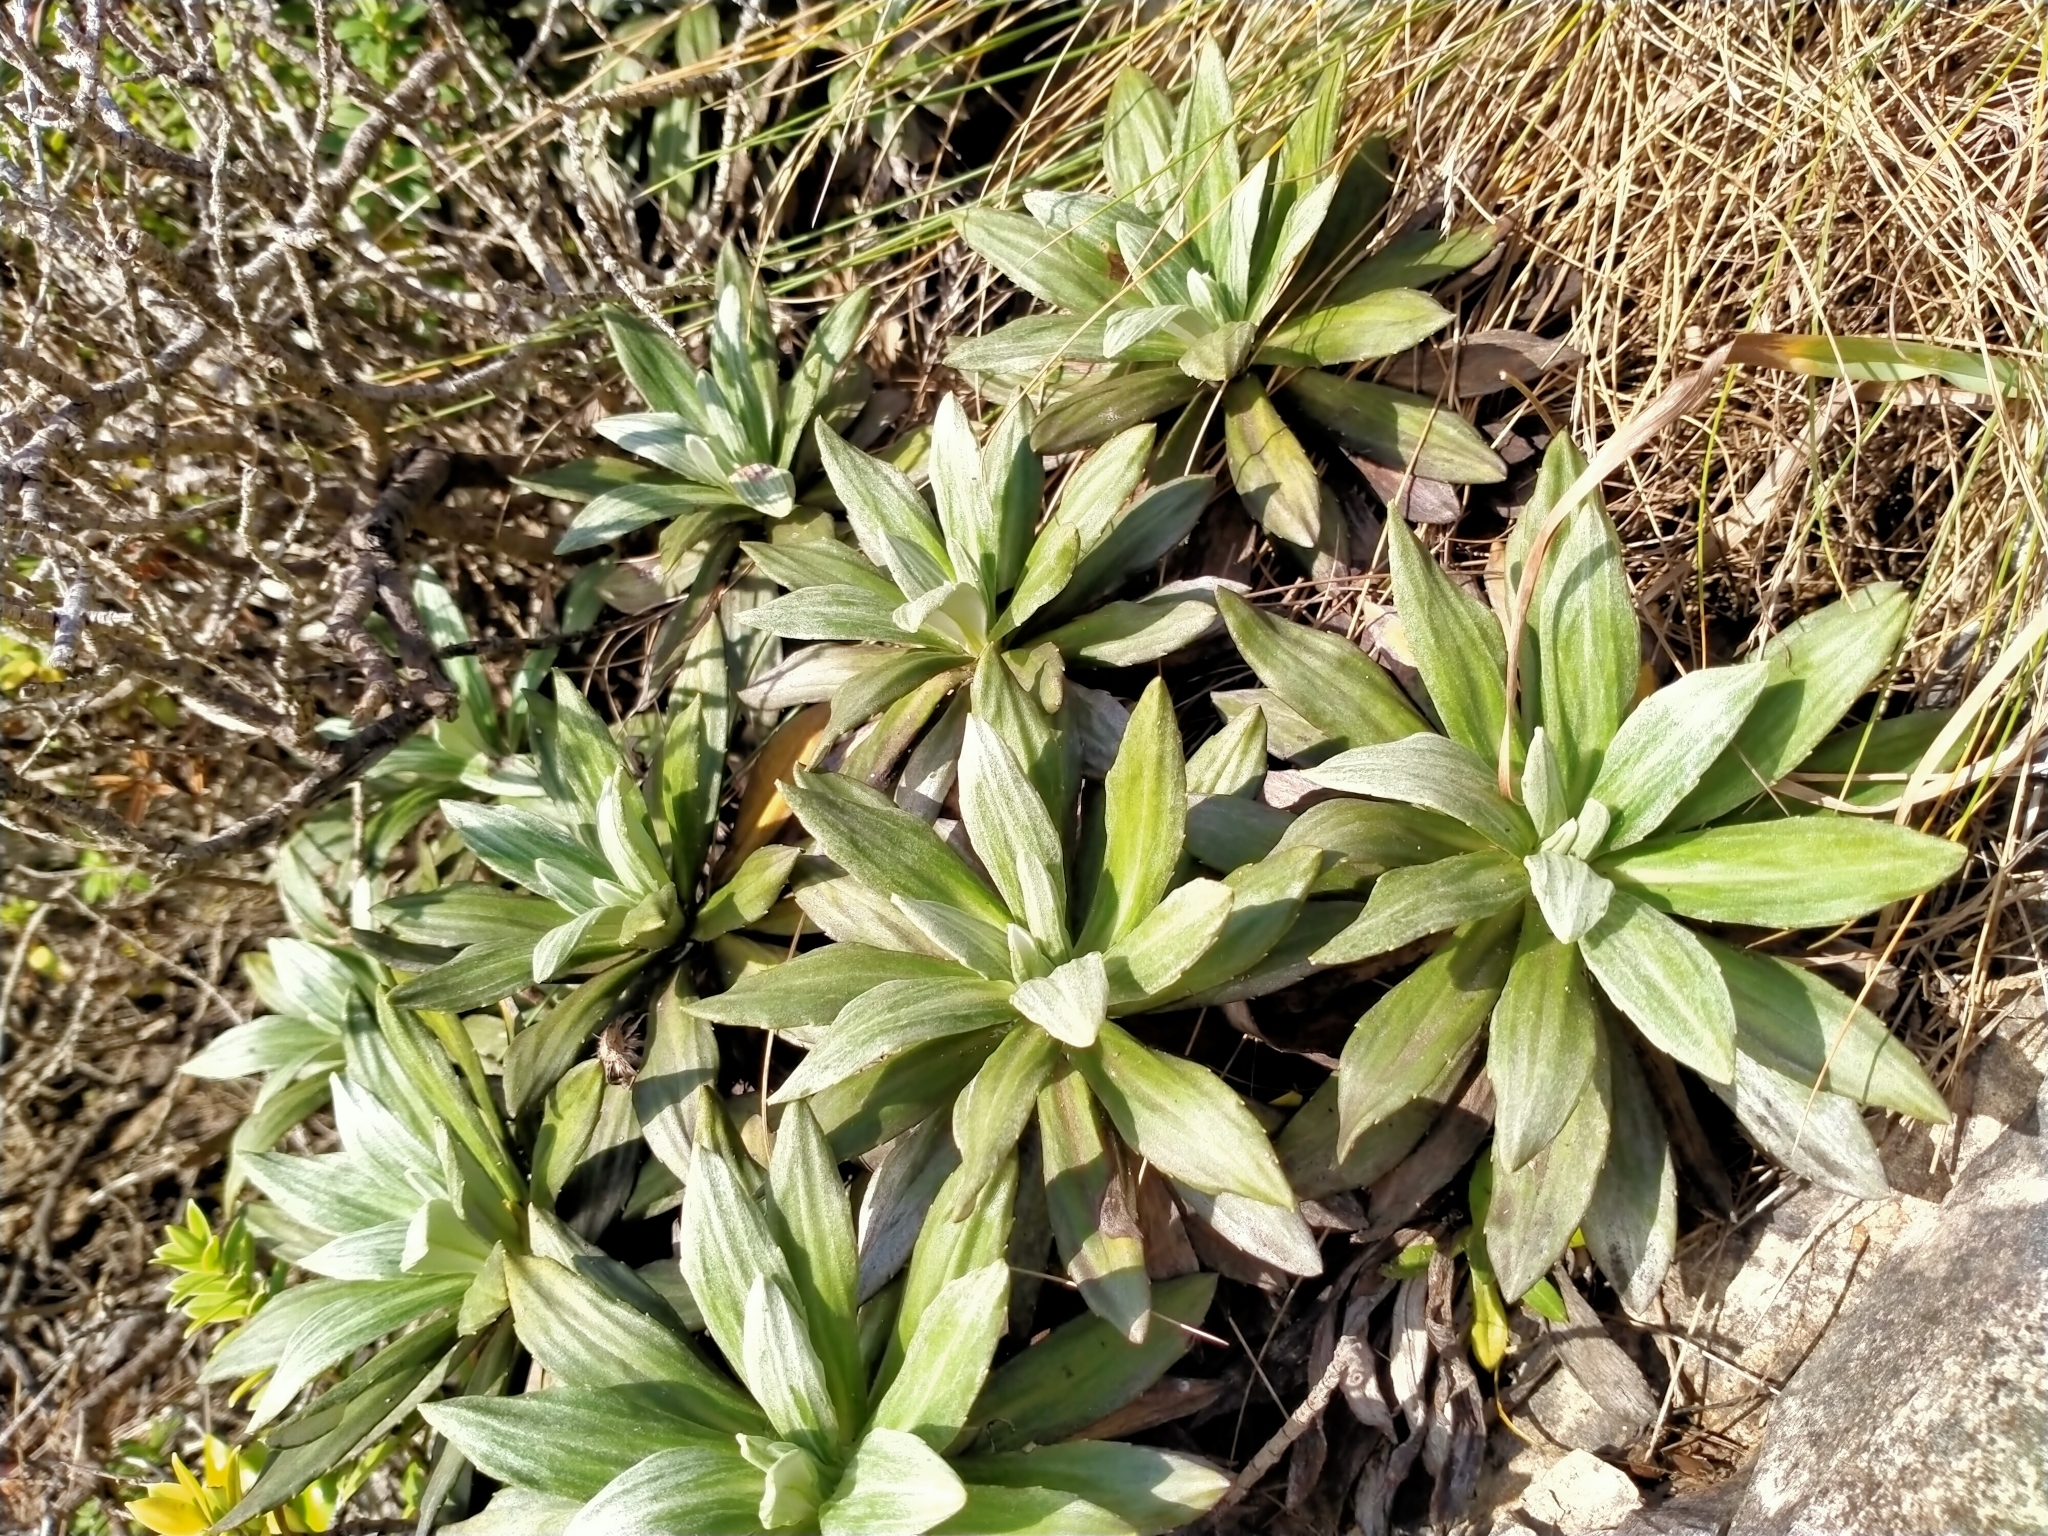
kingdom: Plantae
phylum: Tracheophyta
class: Magnoliopsida
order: Asterales
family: Asteraceae
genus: Celmisia
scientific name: Celmisia lindsayi
